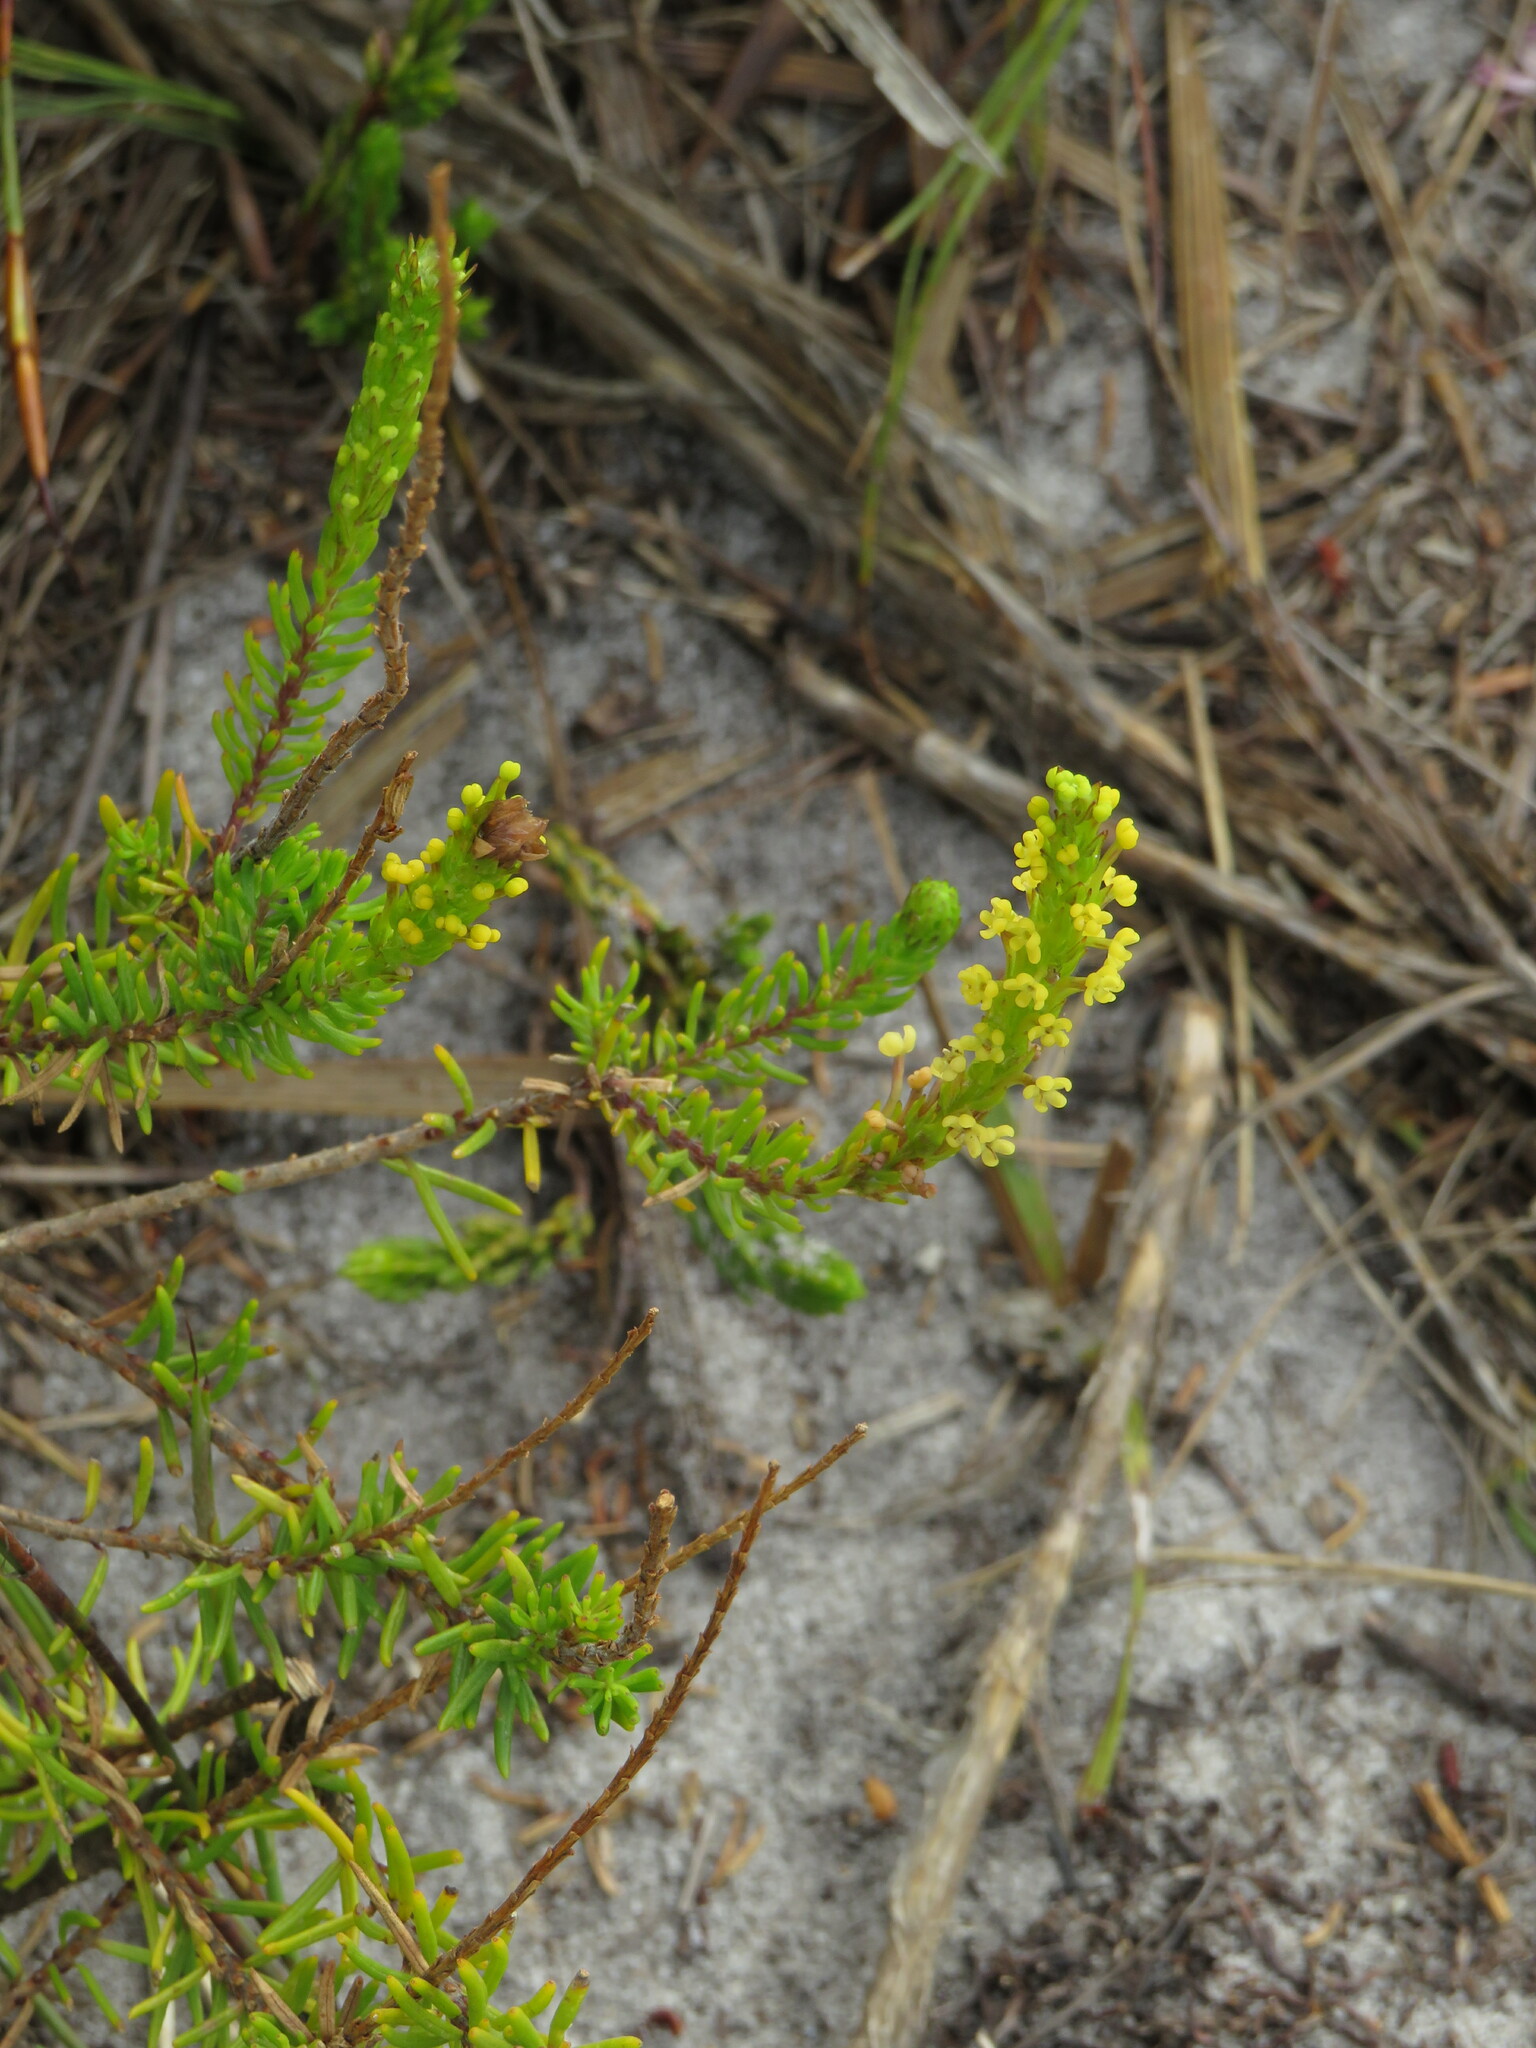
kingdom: Plantae
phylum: Tracheophyta
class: Magnoliopsida
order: Lamiales
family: Scrophulariaceae
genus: Microdon
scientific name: Microdon dubius
